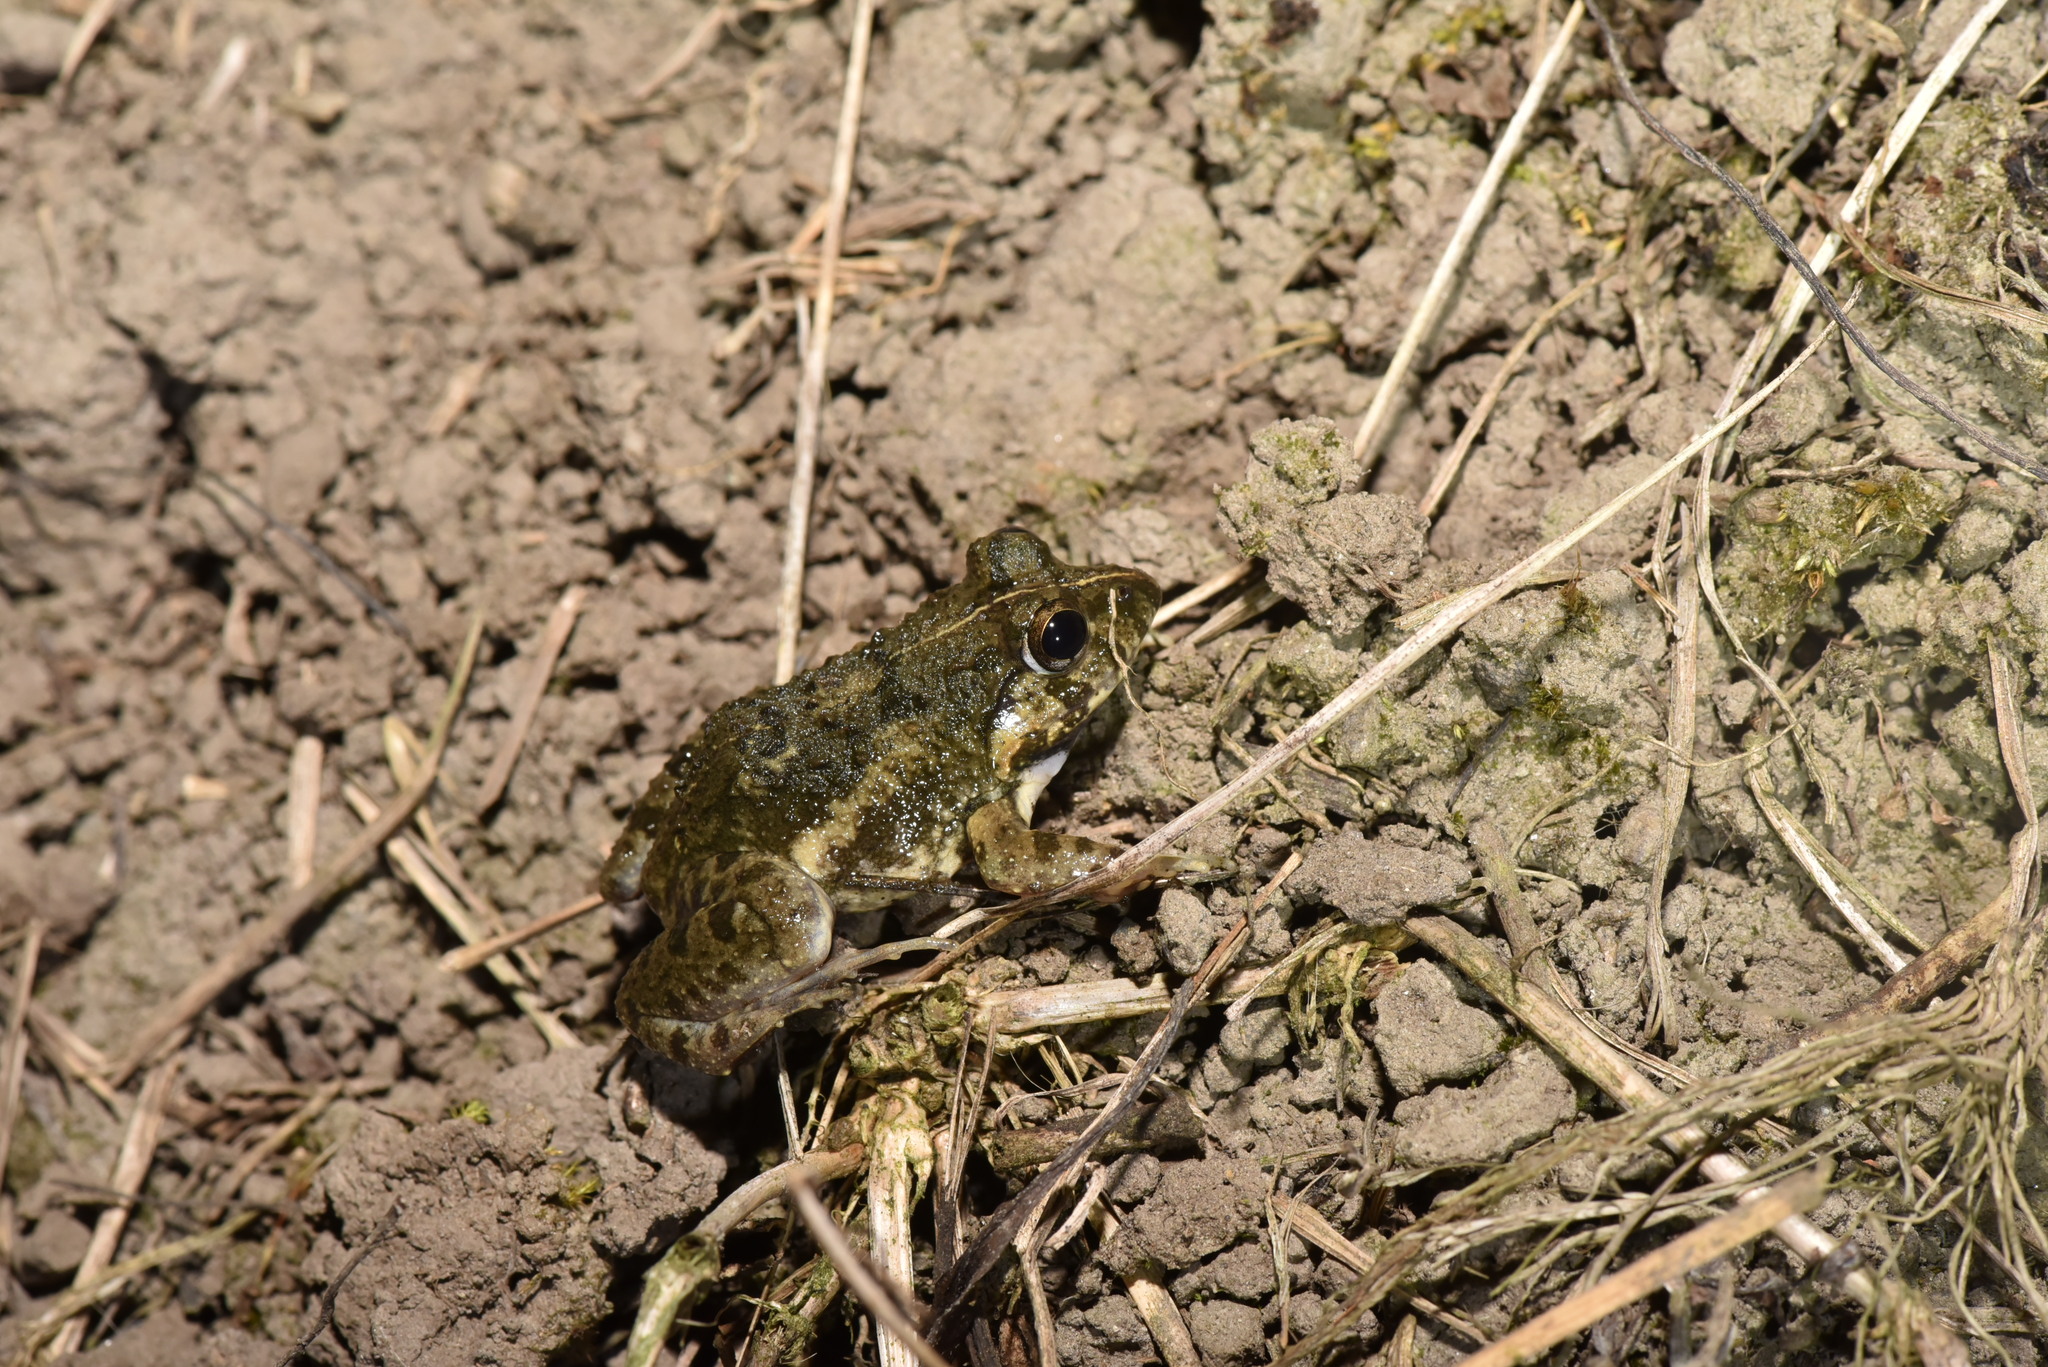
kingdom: Animalia
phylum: Chordata
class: Amphibia
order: Anura
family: Dicroglossidae
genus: Fejervarya
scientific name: Fejervarya limnocharis
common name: Asian grass frog/common pond frog/field frog/grass frog/indian rice frog
